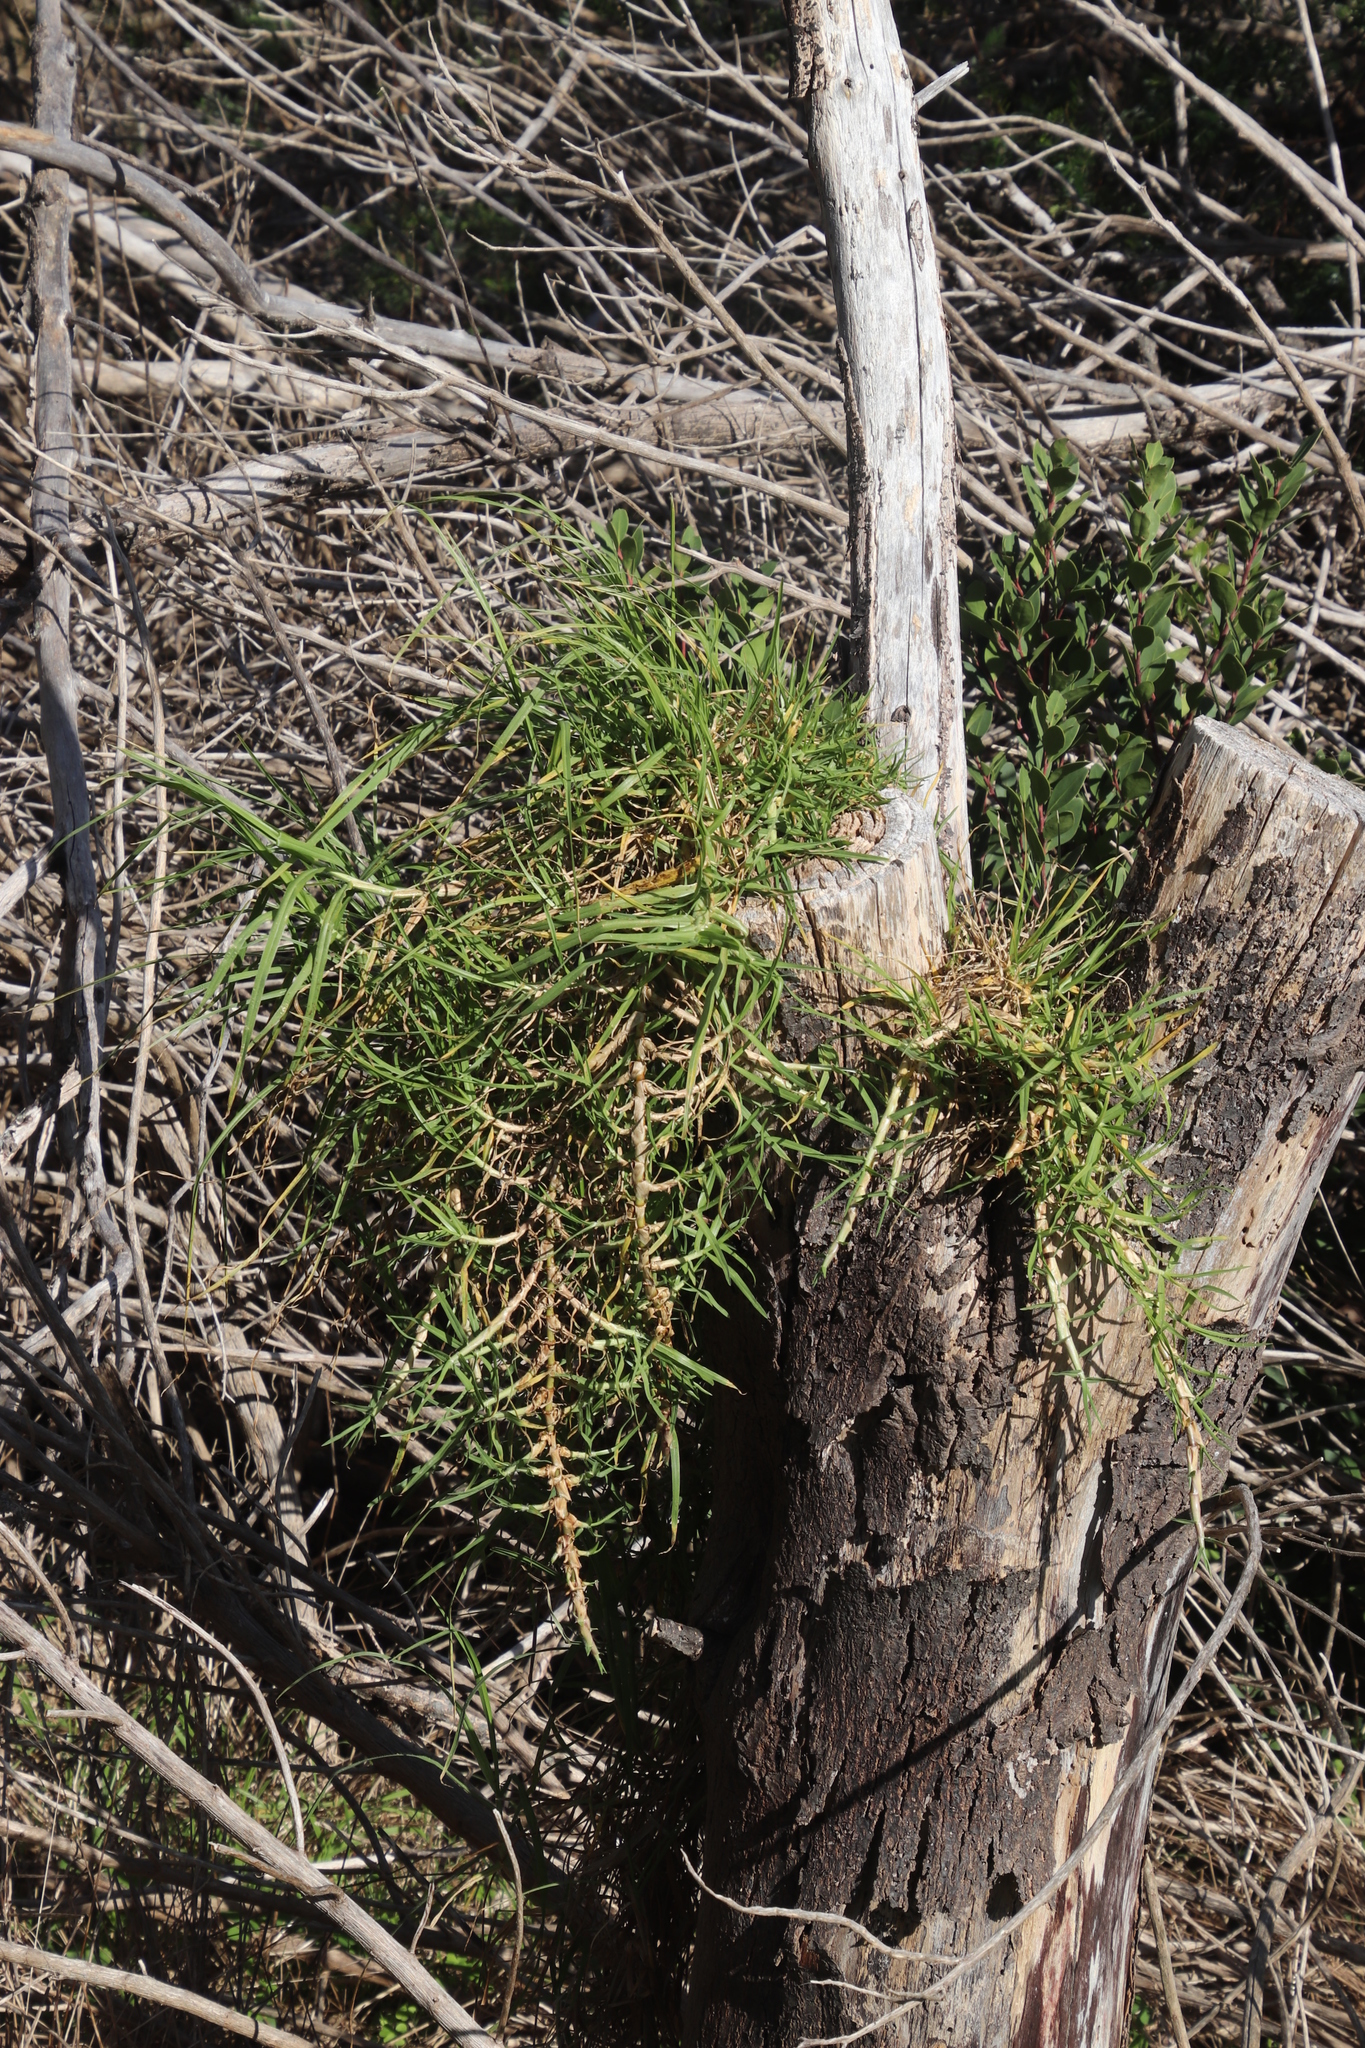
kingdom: Plantae
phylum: Tracheophyta
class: Liliopsida
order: Poales
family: Poaceae
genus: Cenchrus
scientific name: Cenchrus clandestinus
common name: Kikuyugrass
